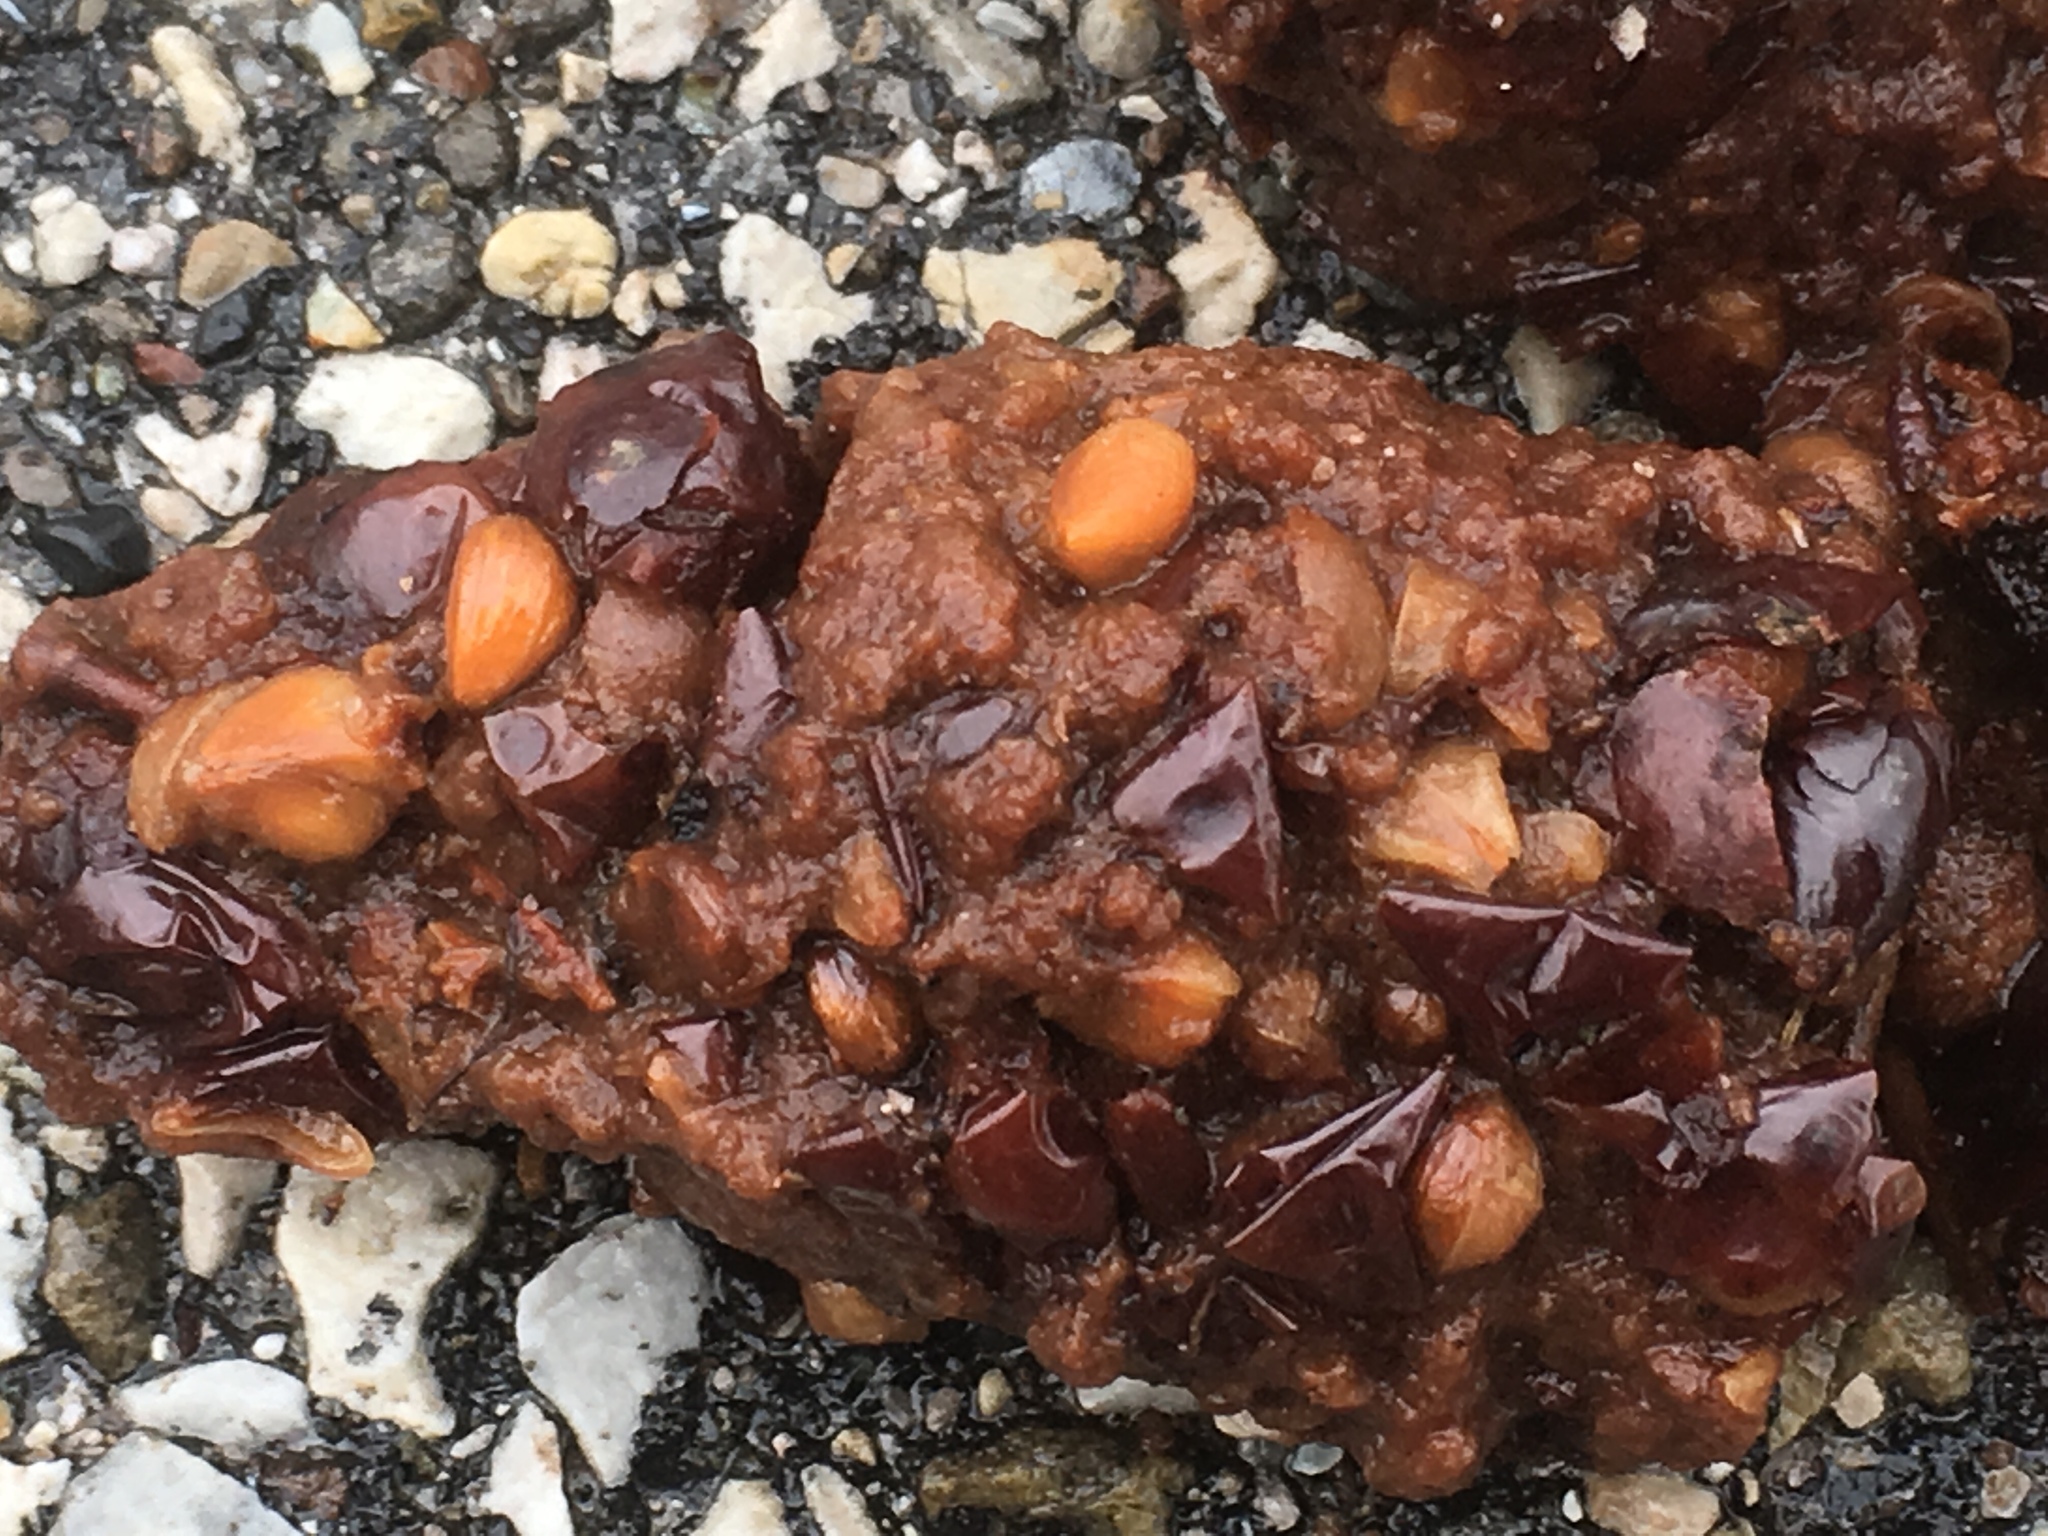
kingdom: Animalia
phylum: Chordata
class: Mammalia
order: Carnivora
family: Procyonidae
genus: Procyon
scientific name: Procyon lotor
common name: Raccoon
